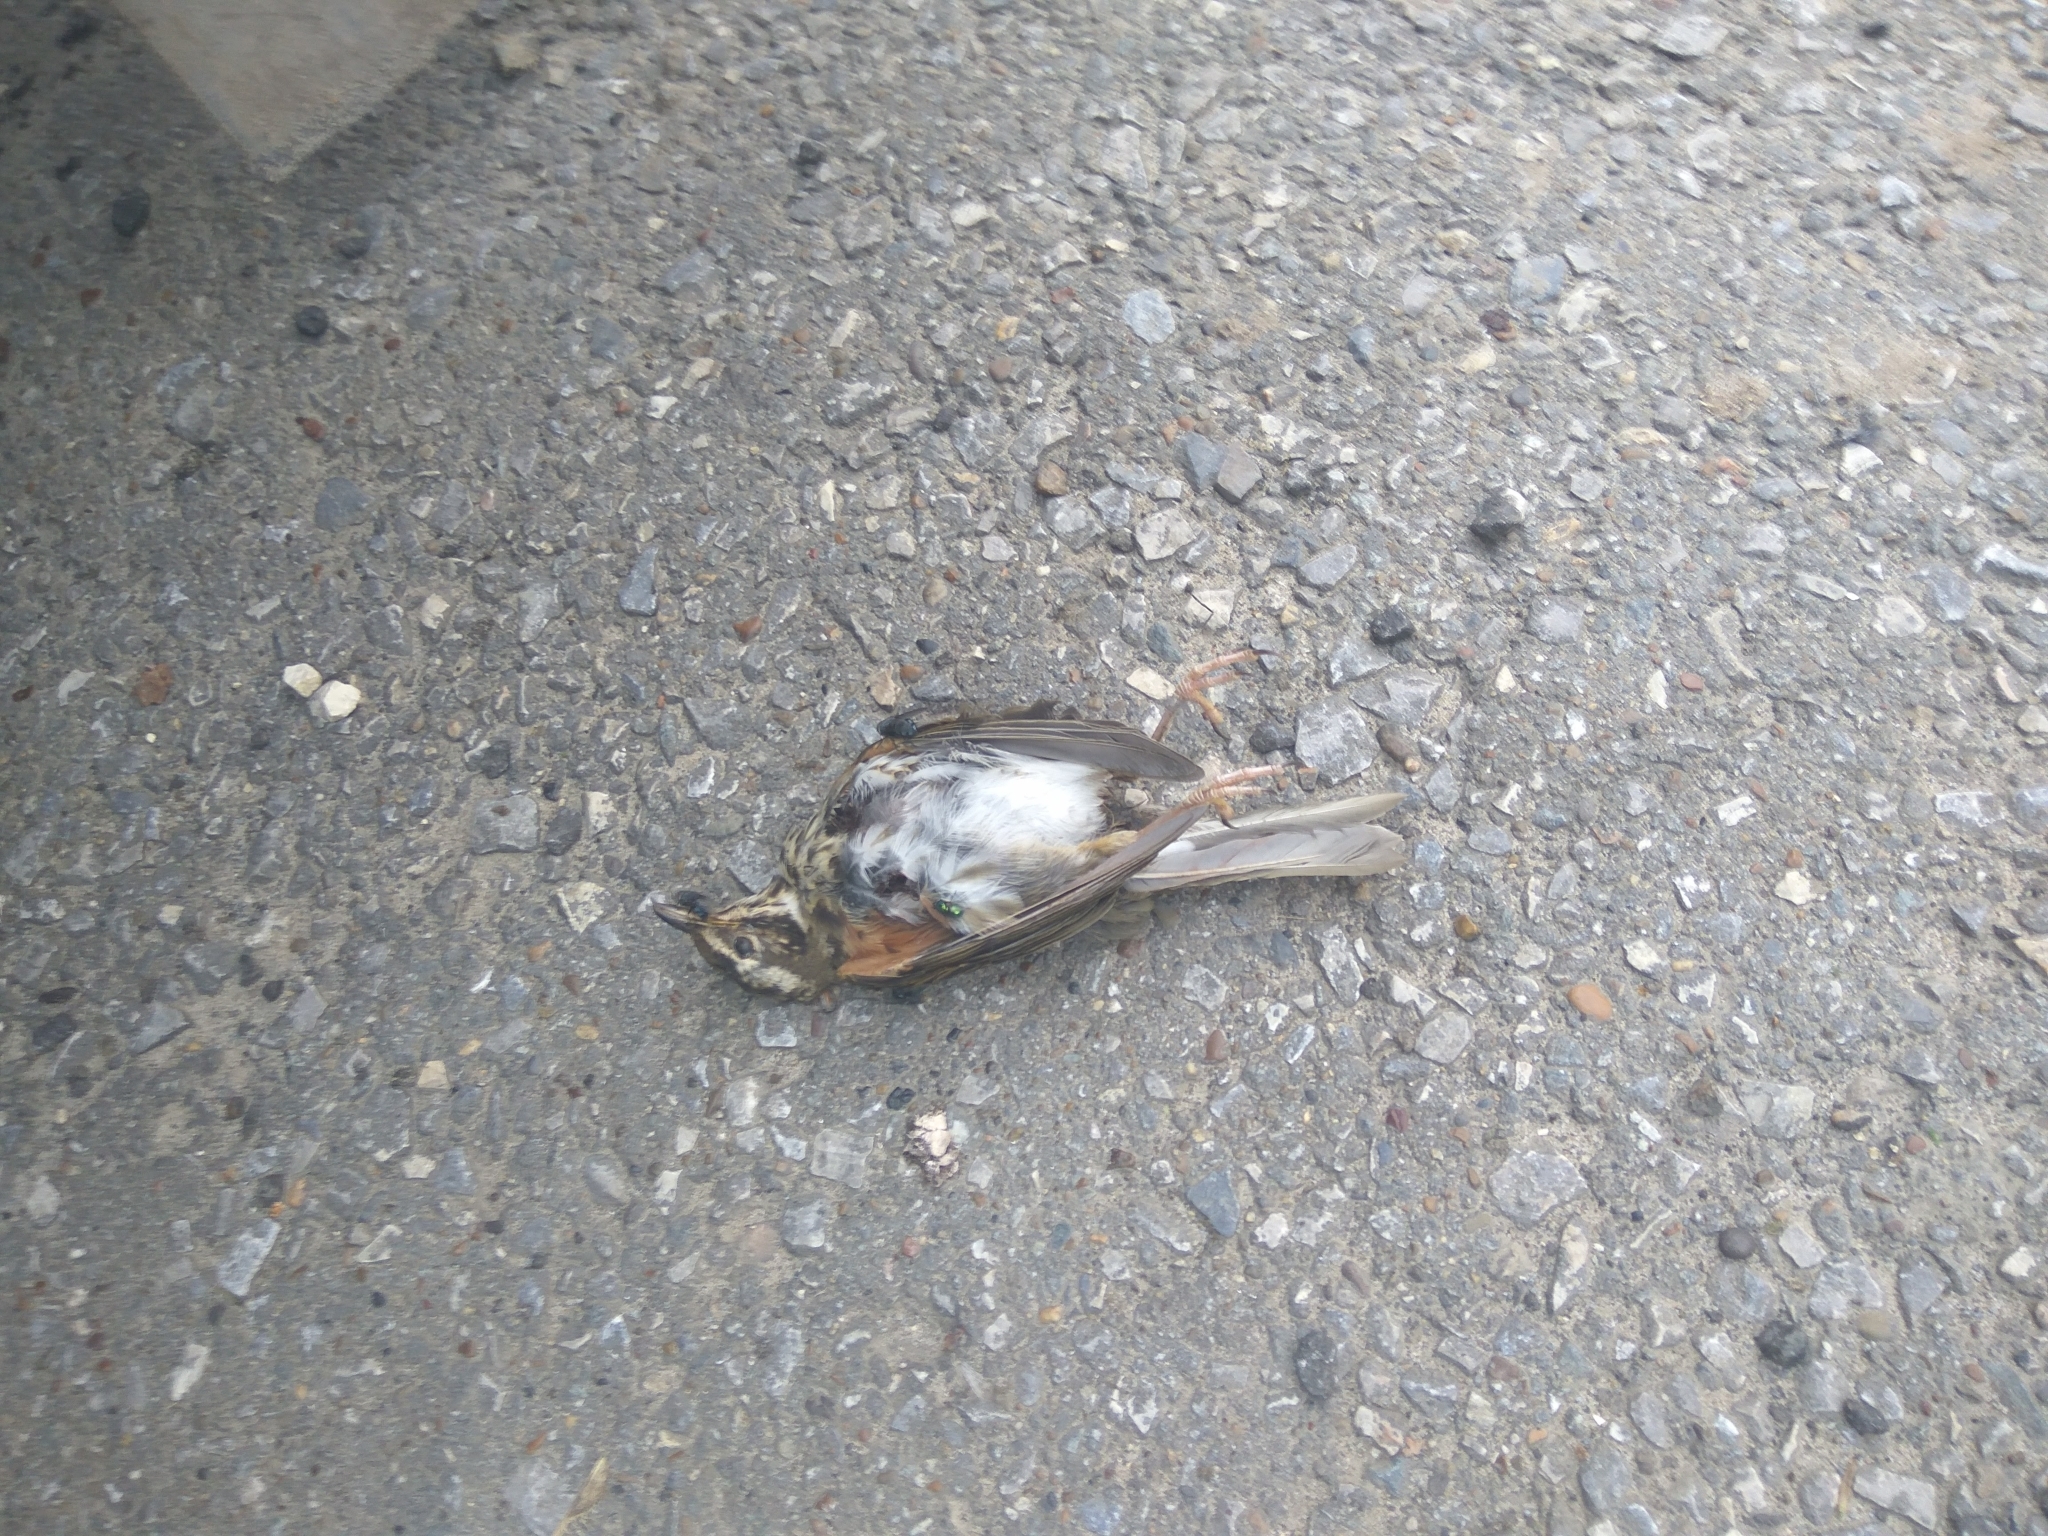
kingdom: Animalia
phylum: Chordata
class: Aves
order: Passeriformes
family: Turdidae
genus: Turdus
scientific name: Turdus iliacus
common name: Redwing
